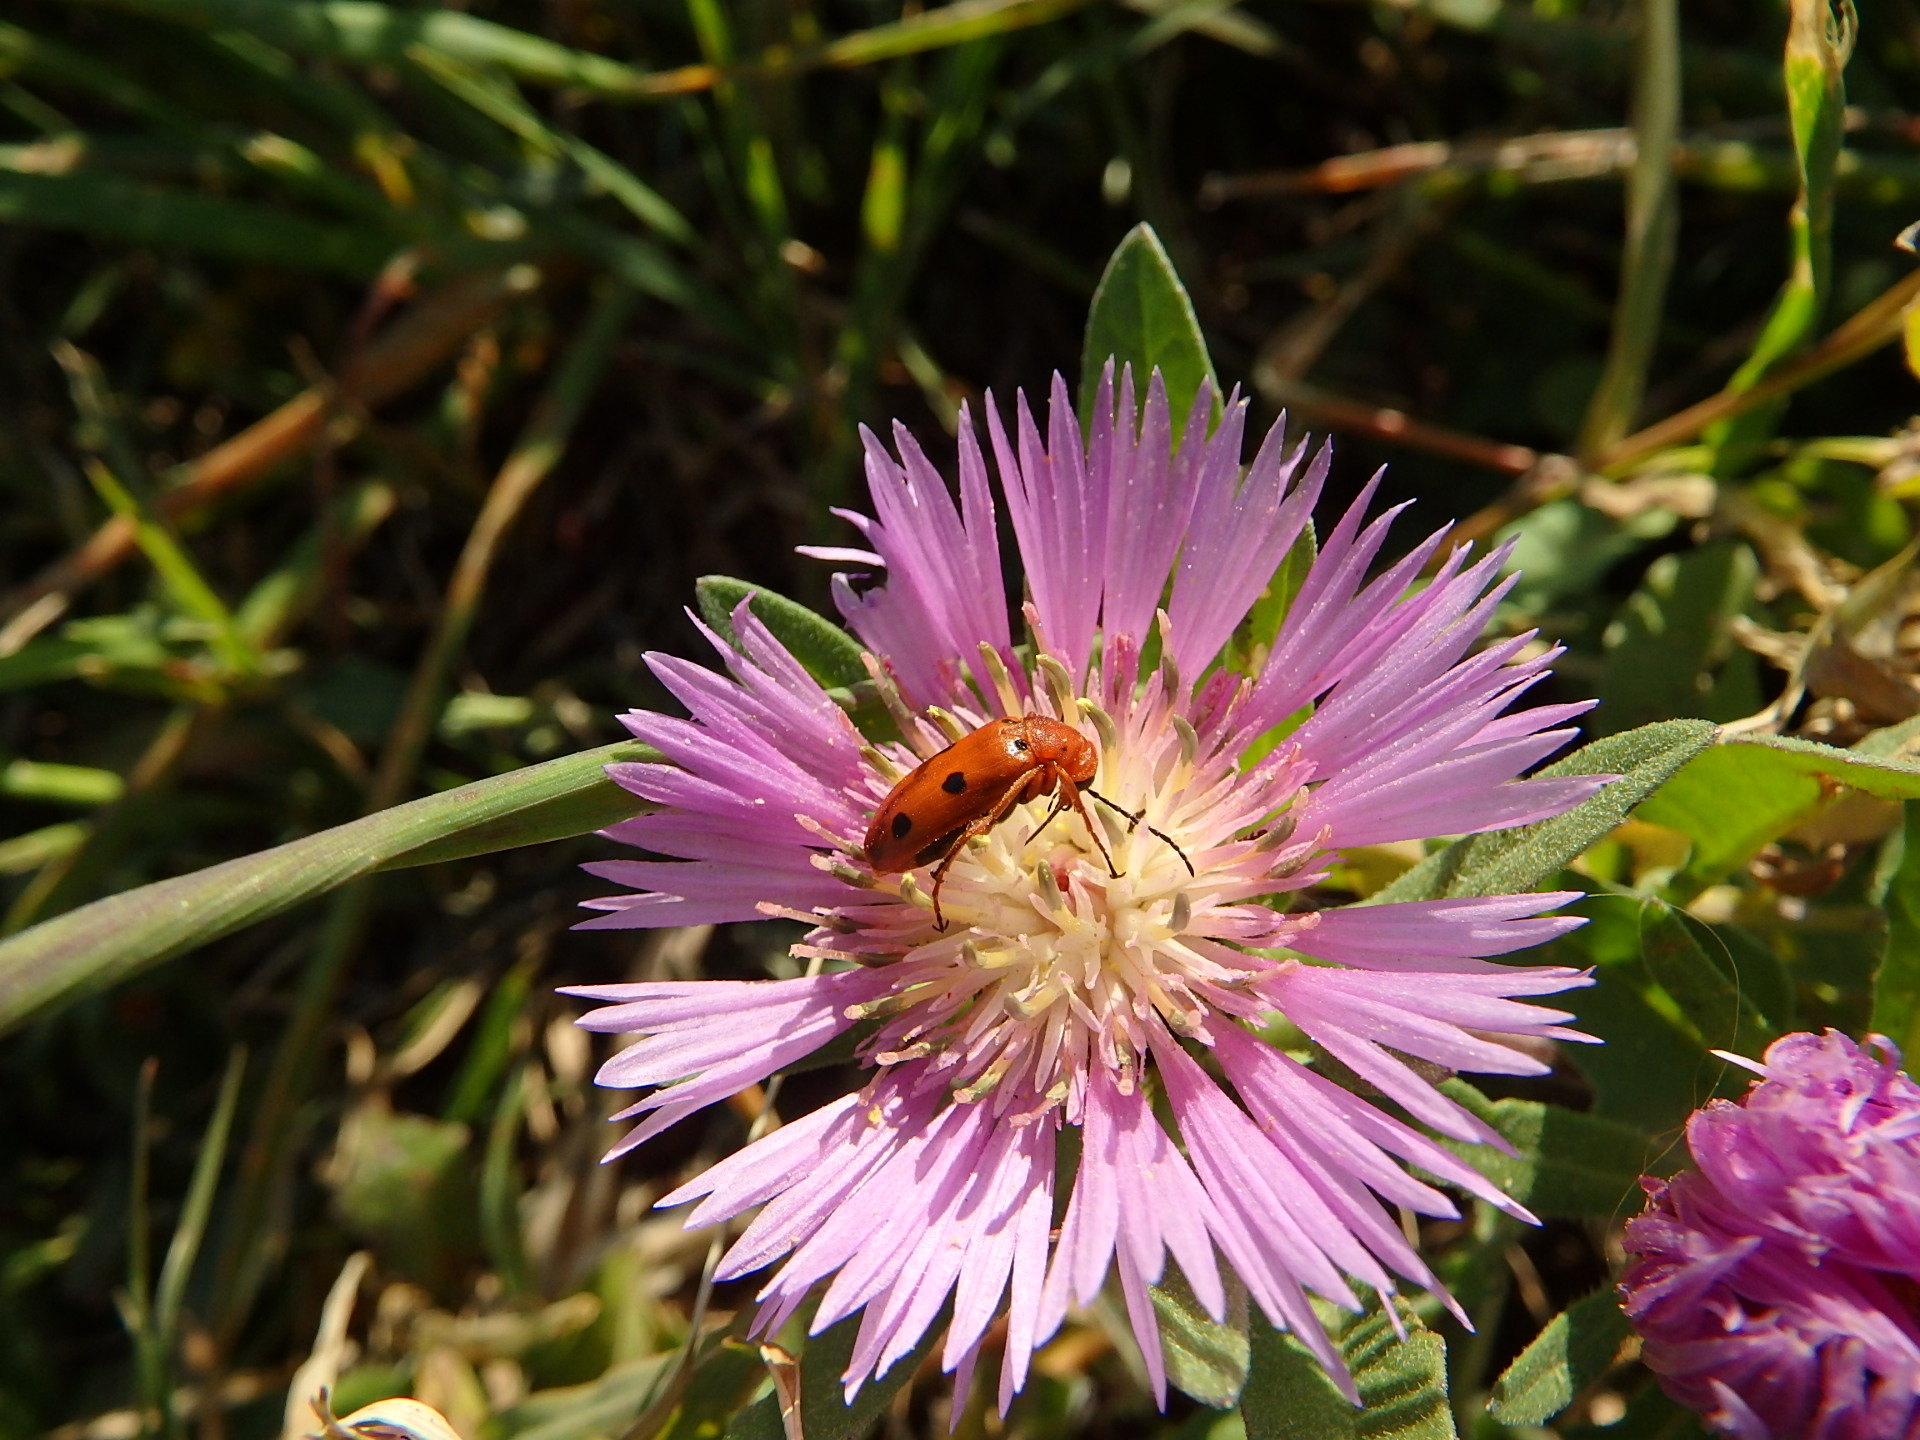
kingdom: Animalia
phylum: Arthropoda
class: Insecta
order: Coleoptera
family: Meloidae
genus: Leptopalpus
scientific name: Leptopalpus rostratus
